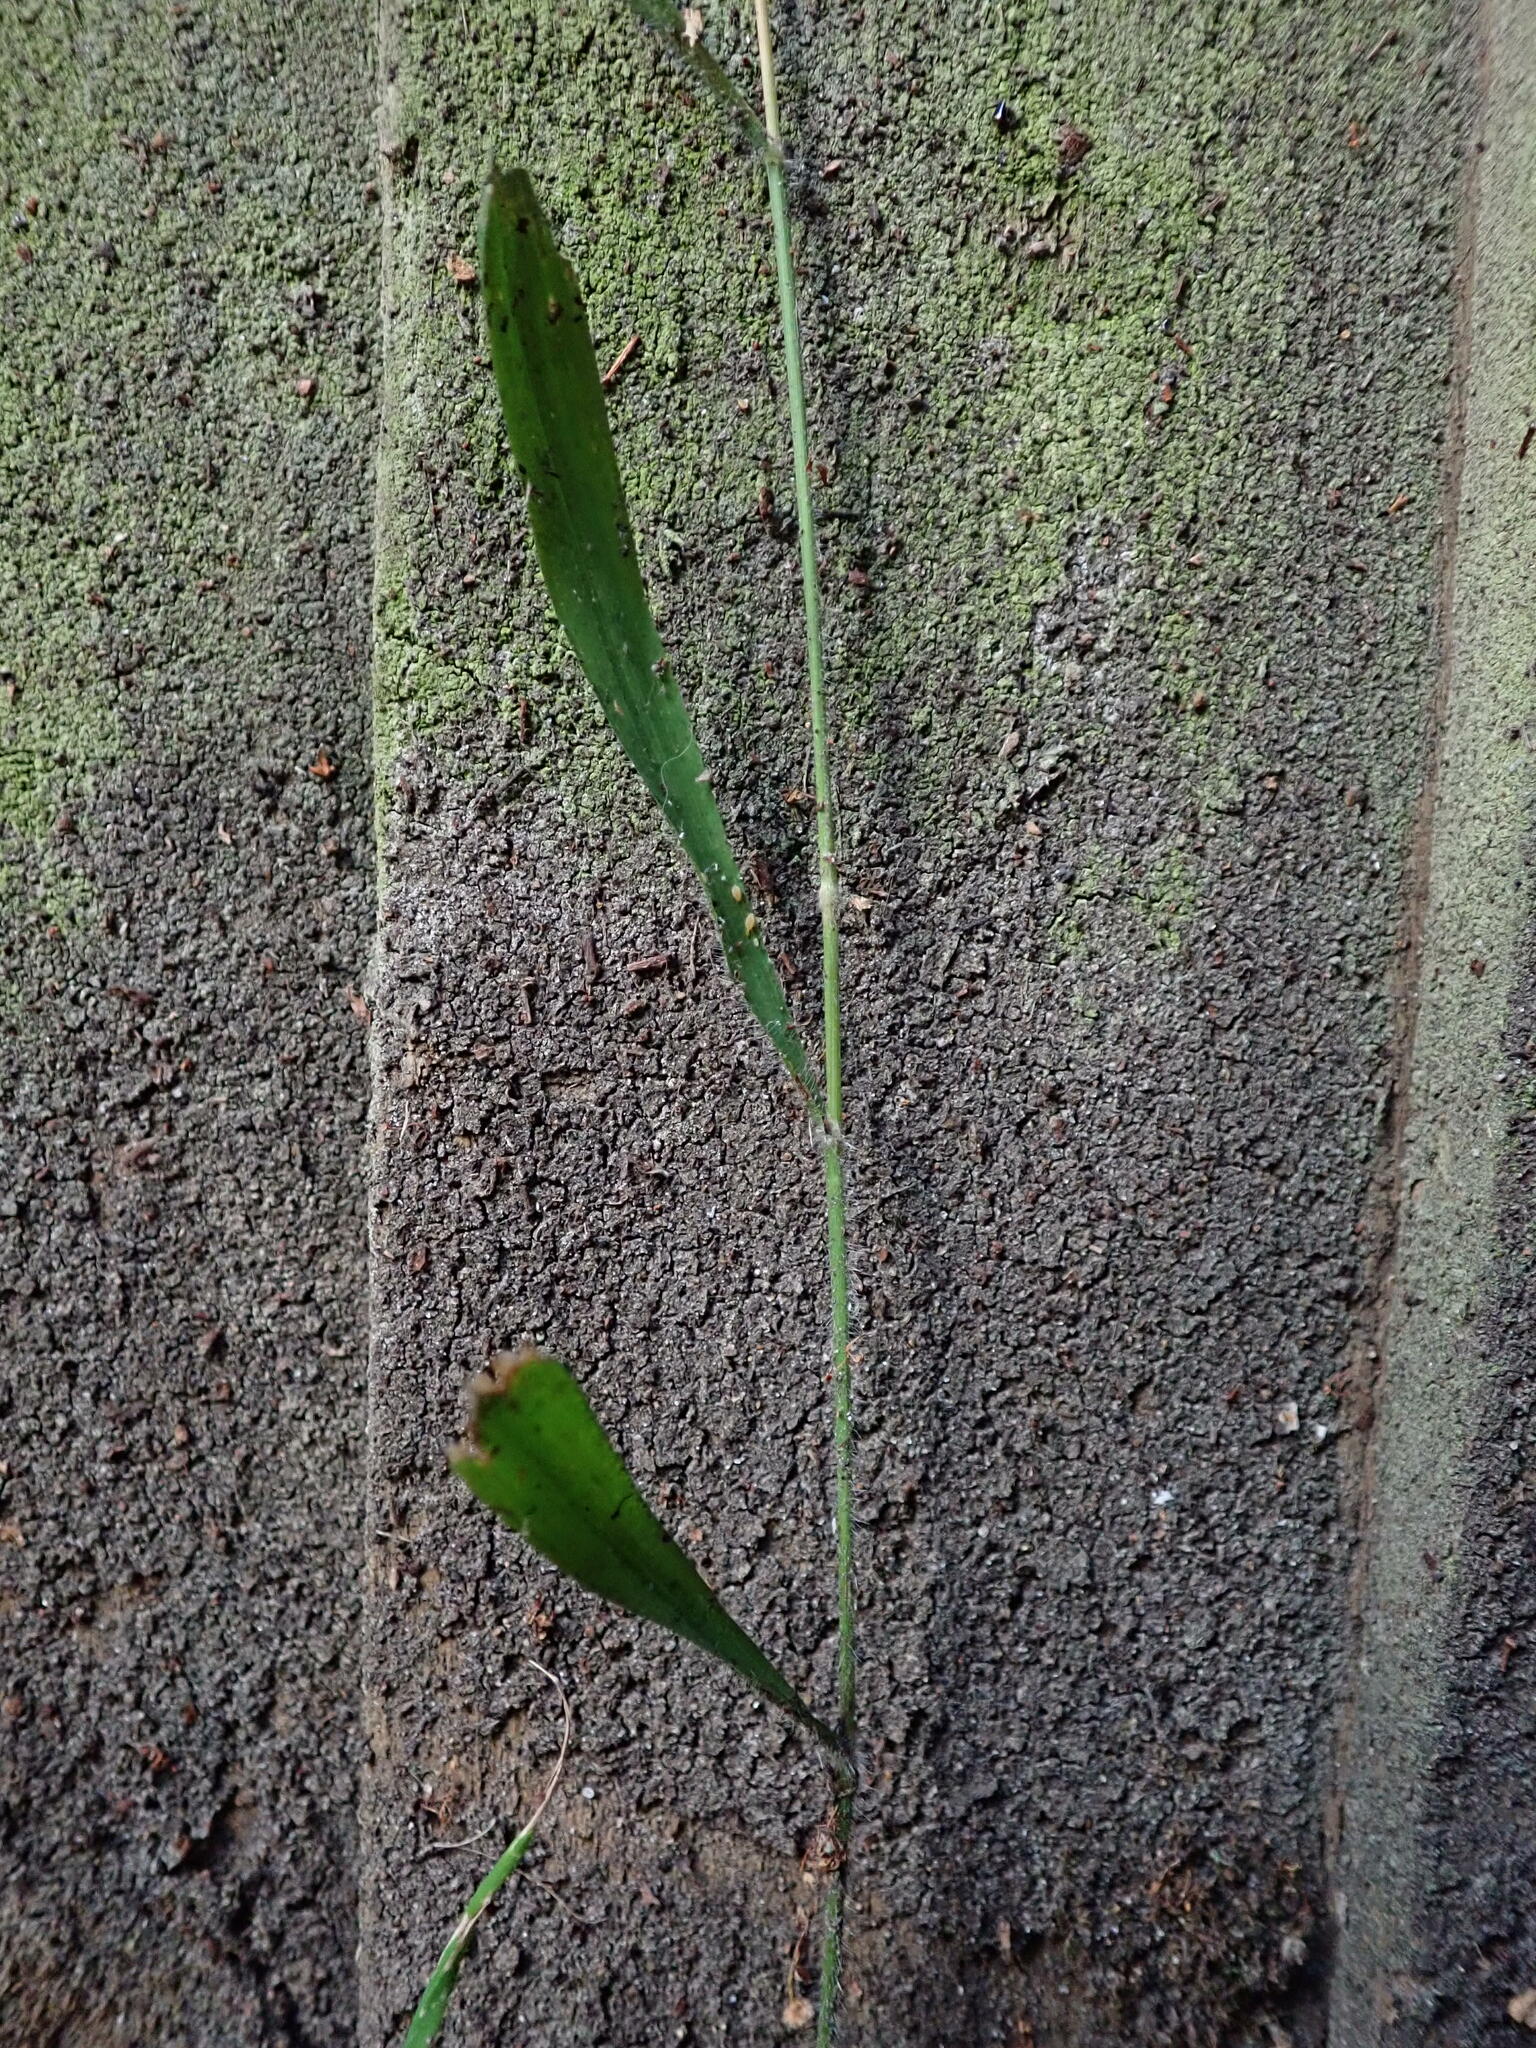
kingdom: Plantae
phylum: Tracheophyta
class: Liliopsida
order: Poales
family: Poaceae
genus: Brachypodium
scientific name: Brachypodium sylvaticum
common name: False-brome
